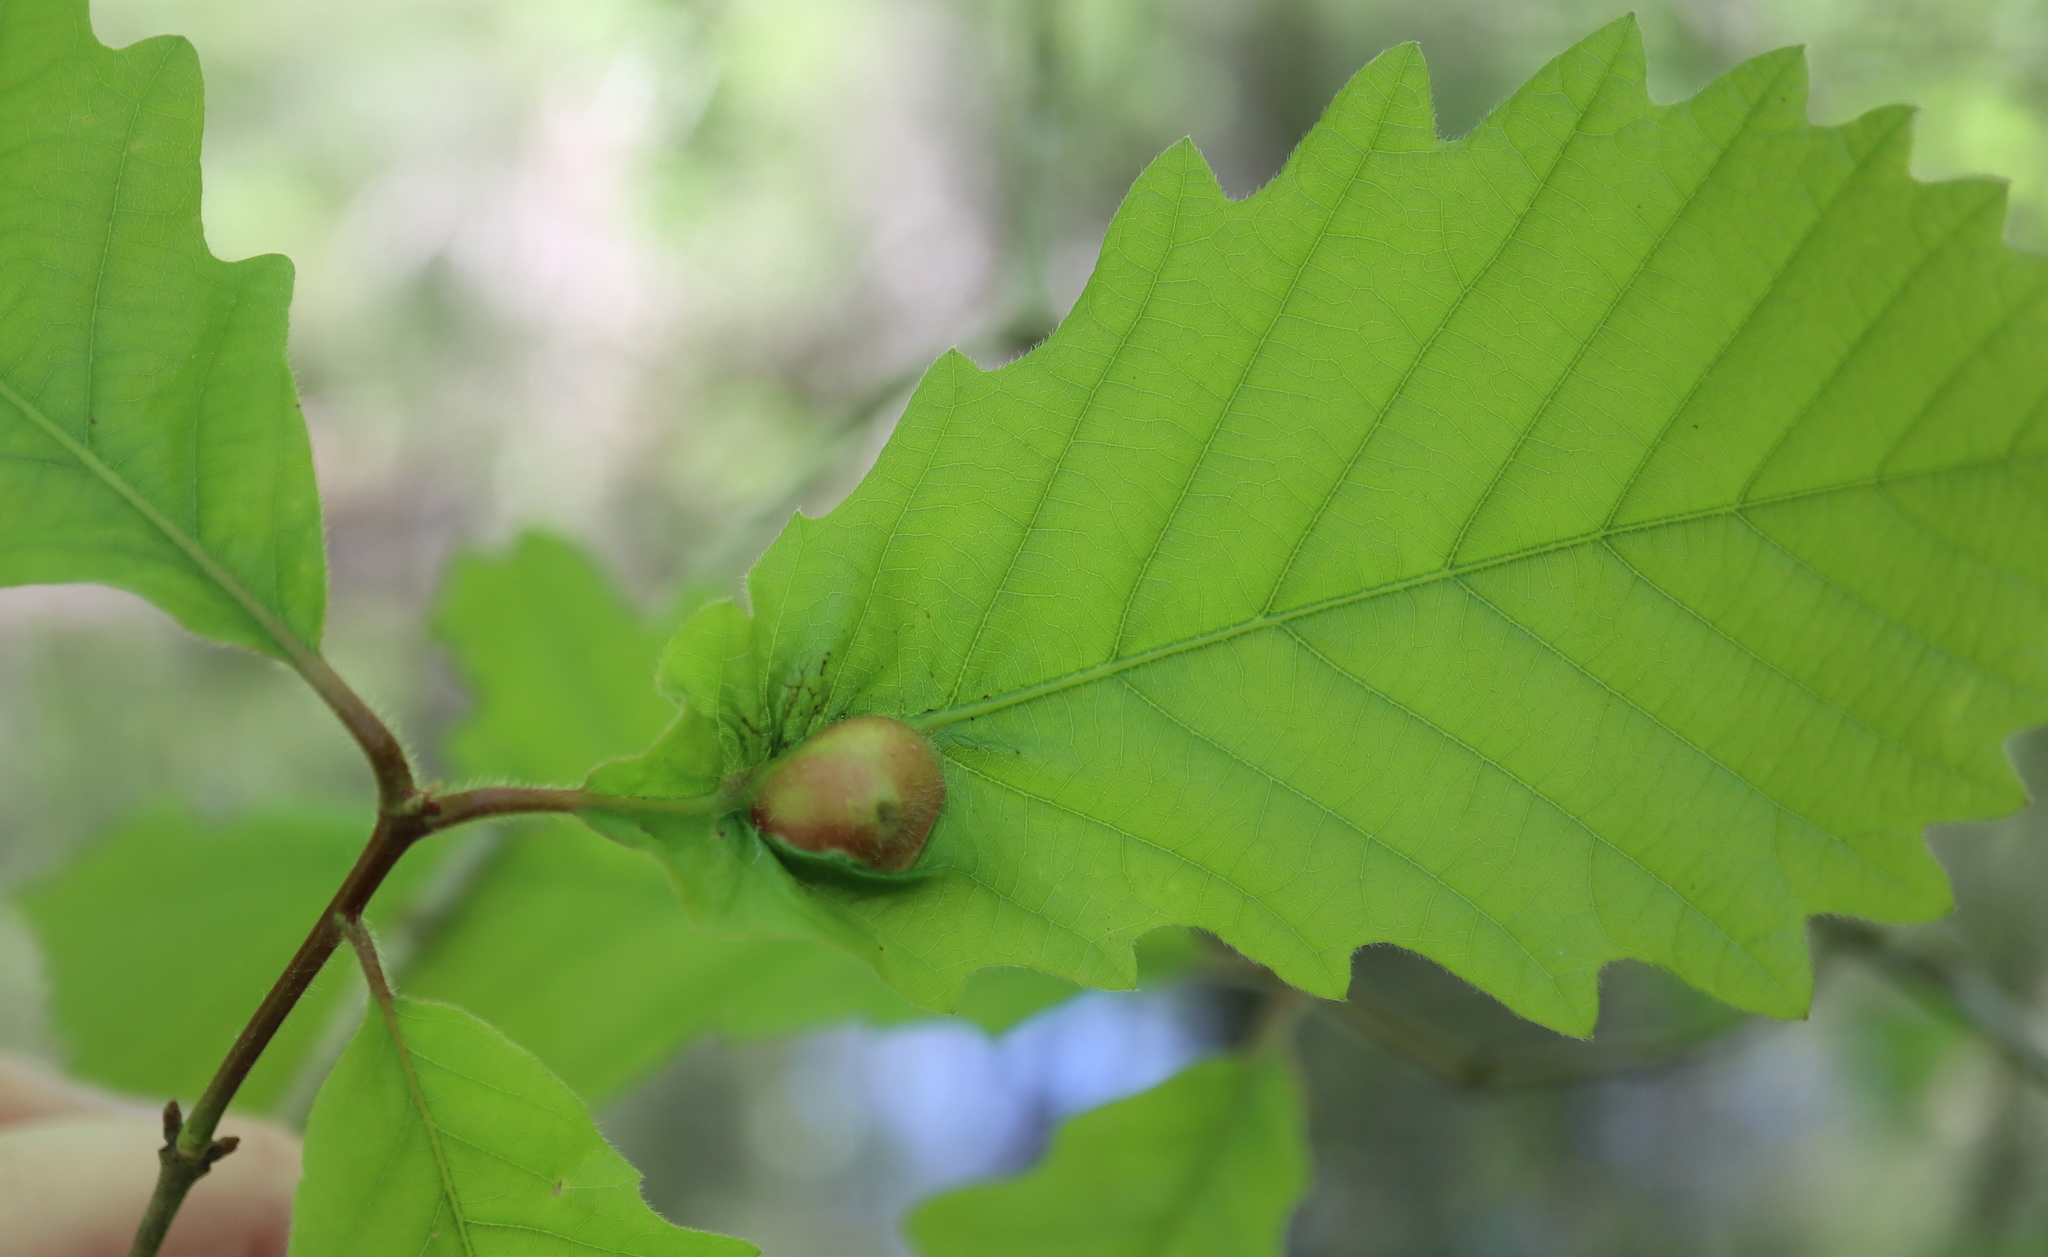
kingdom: Animalia
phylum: Arthropoda
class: Insecta
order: Hymenoptera
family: Cynipidae
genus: Andricus
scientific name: Andricus
